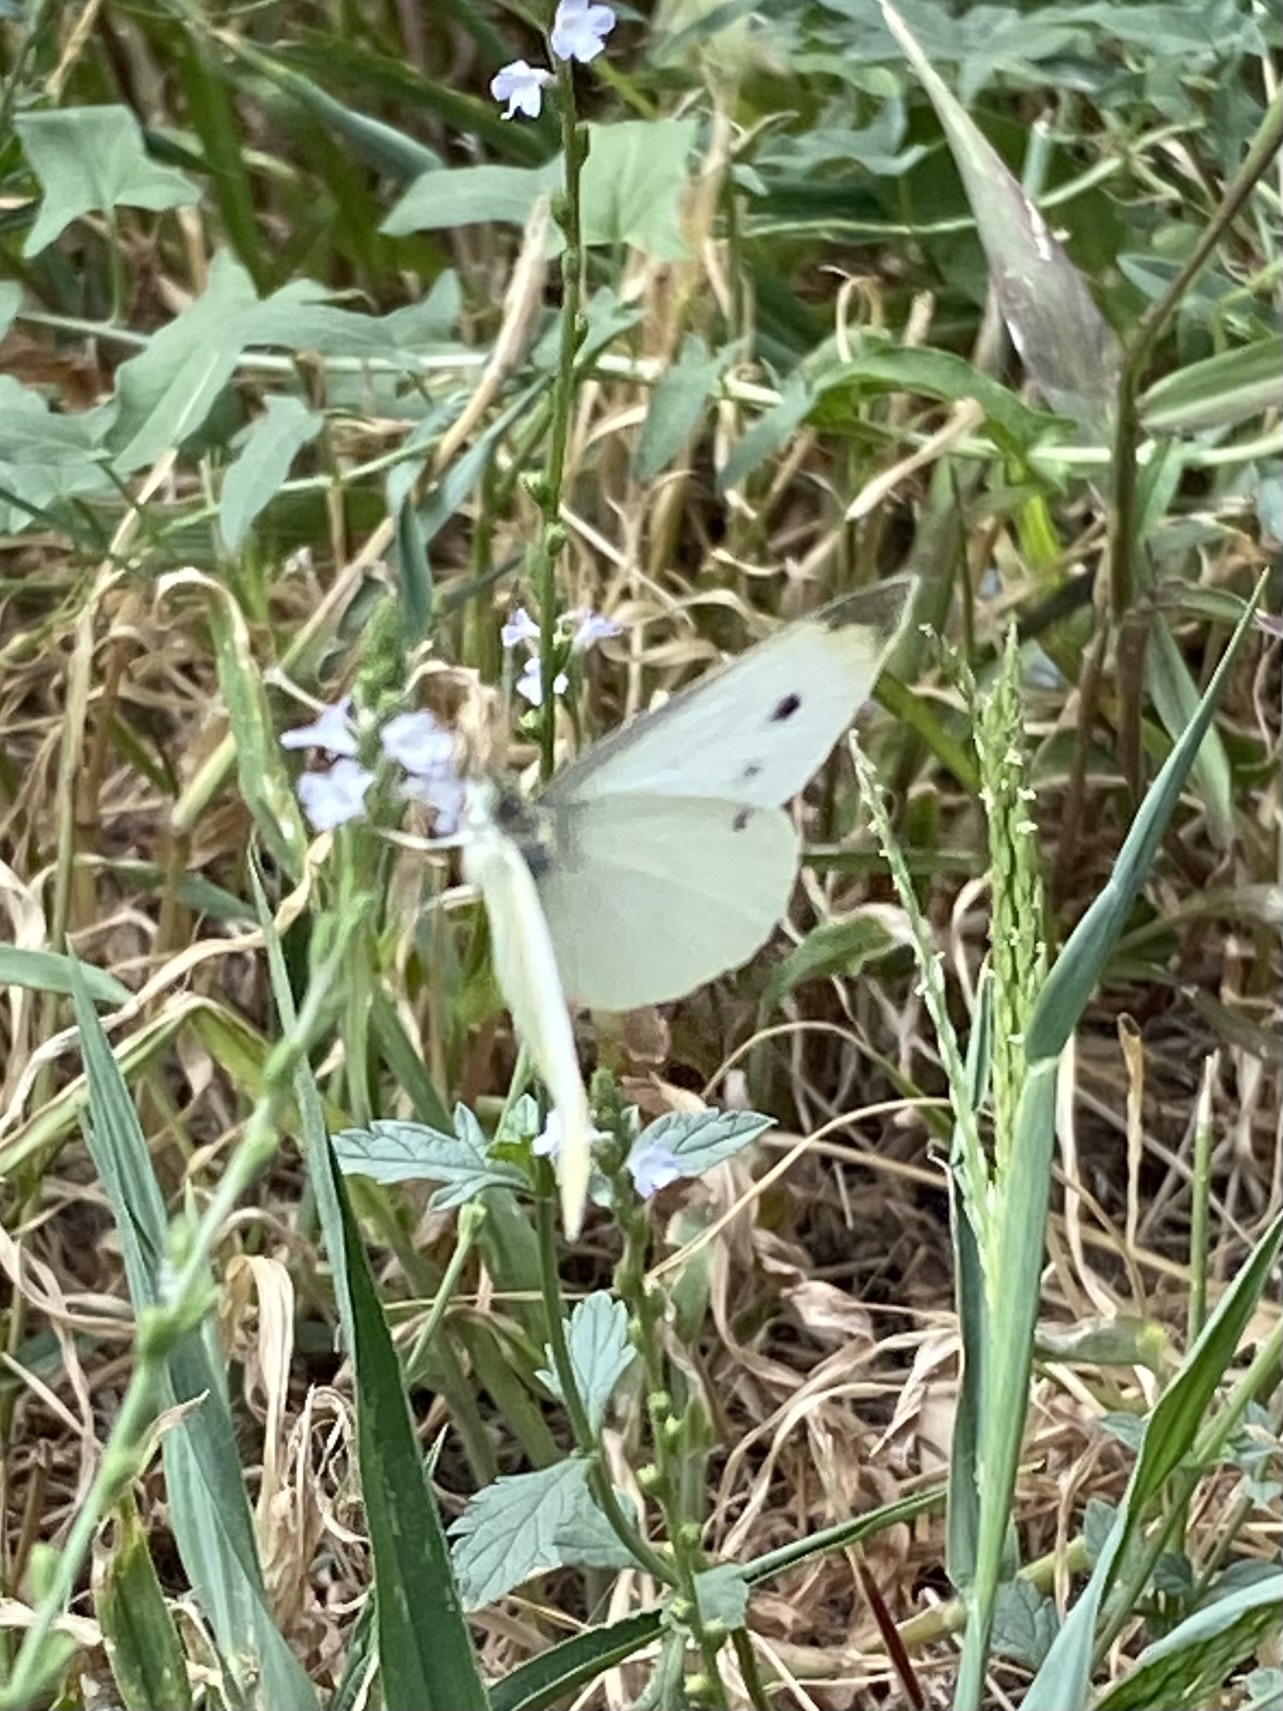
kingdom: Animalia
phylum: Arthropoda
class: Insecta
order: Lepidoptera
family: Pieridae
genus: Pieris
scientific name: Pieris rapae
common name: Small white
